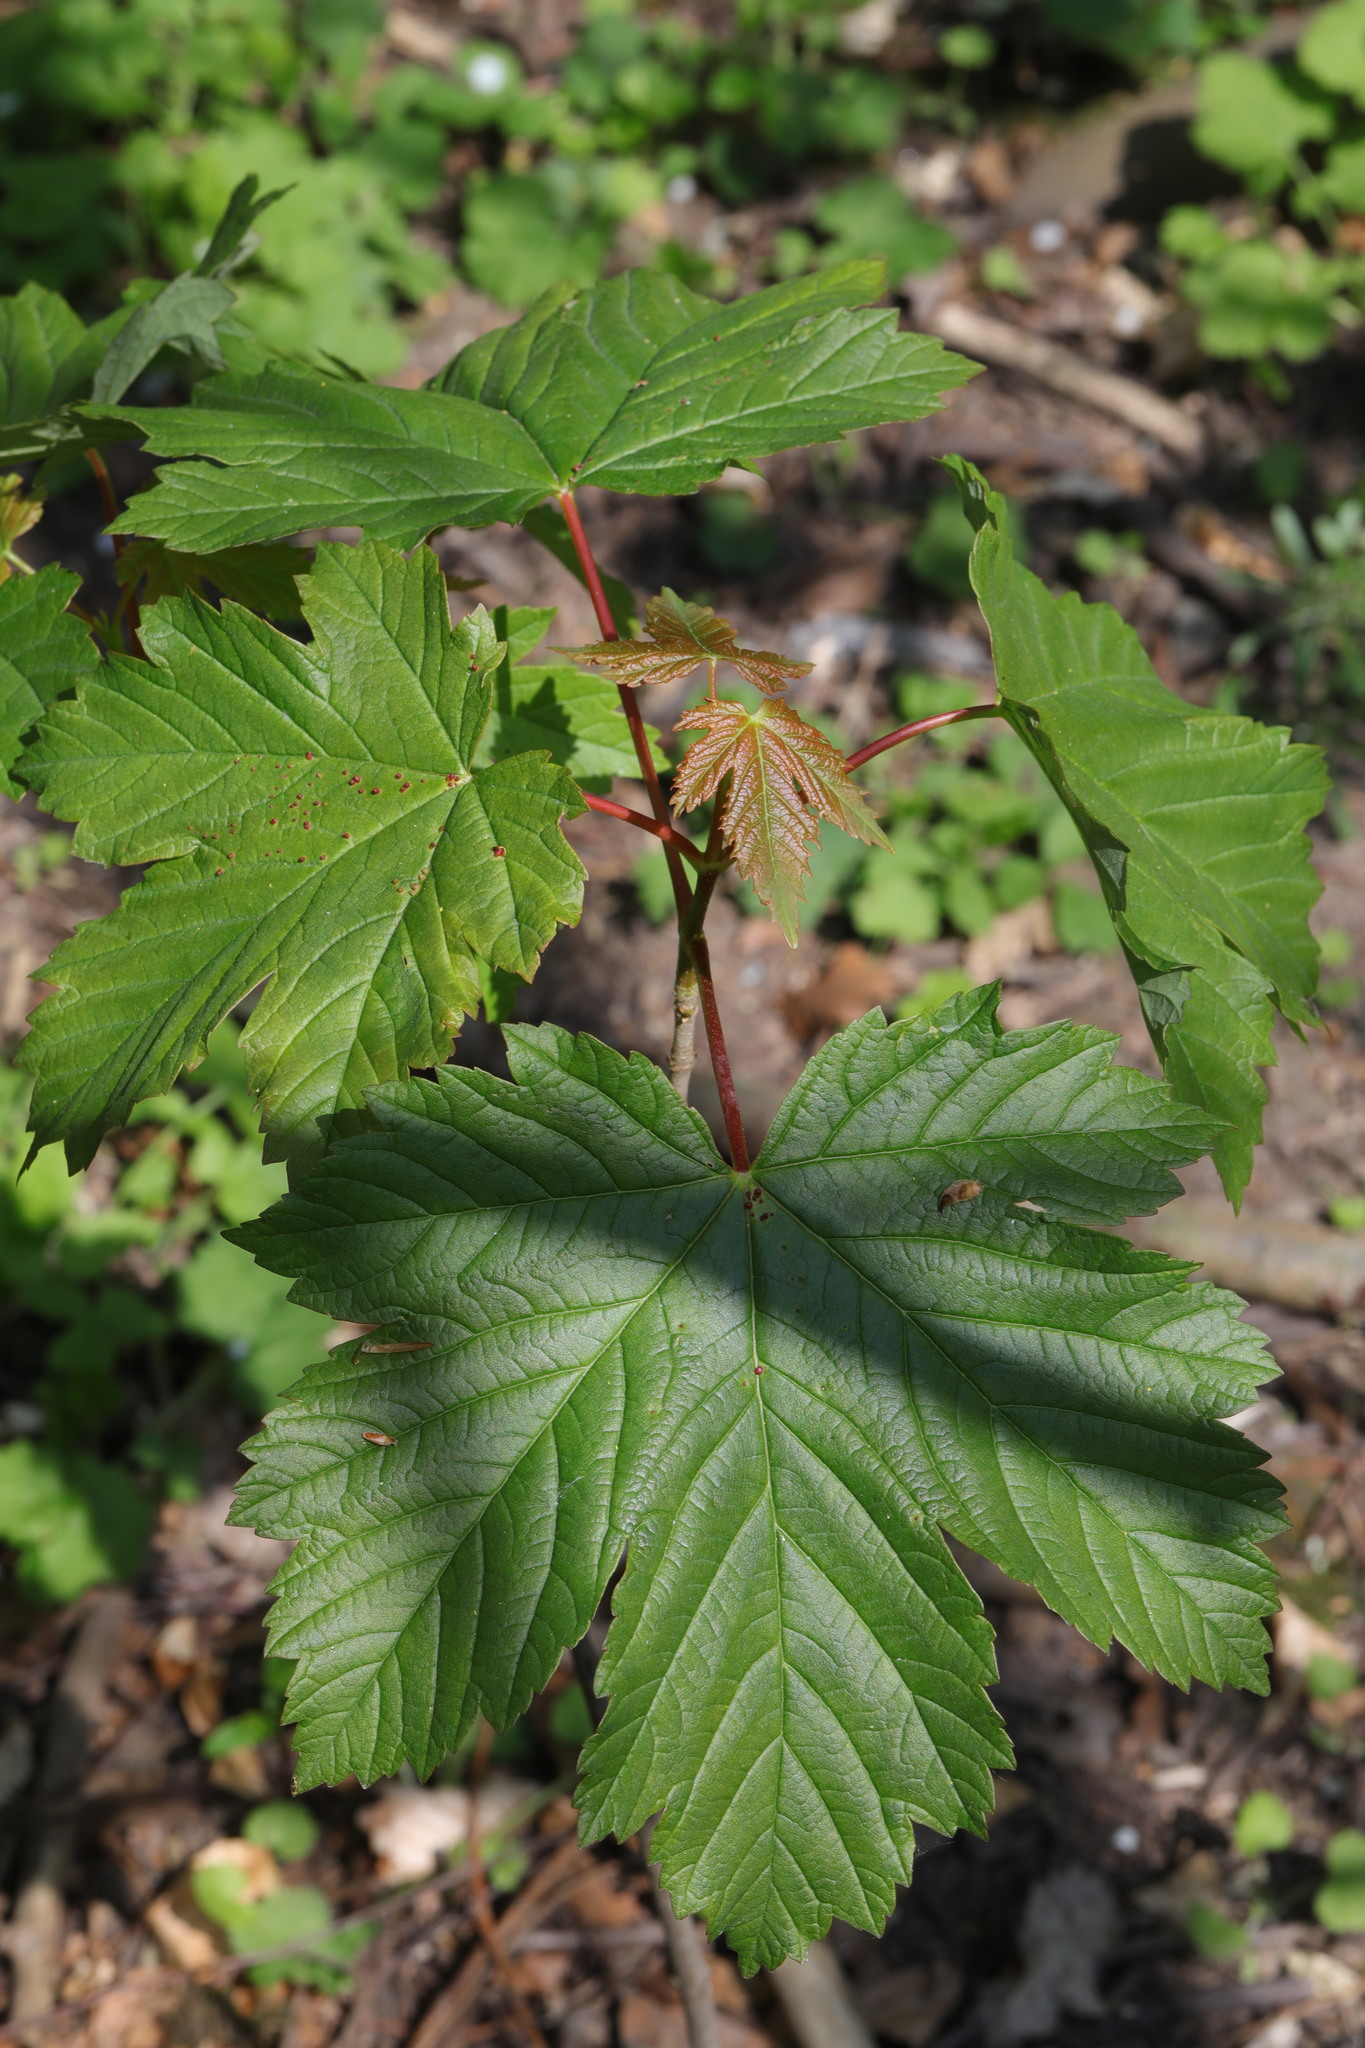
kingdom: Plantae
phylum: Tracheophyta
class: Magnoliopsida
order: Sapindales
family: Sapindaceae
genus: Acer
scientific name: Acer pseudoplatanus
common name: Sycamore
